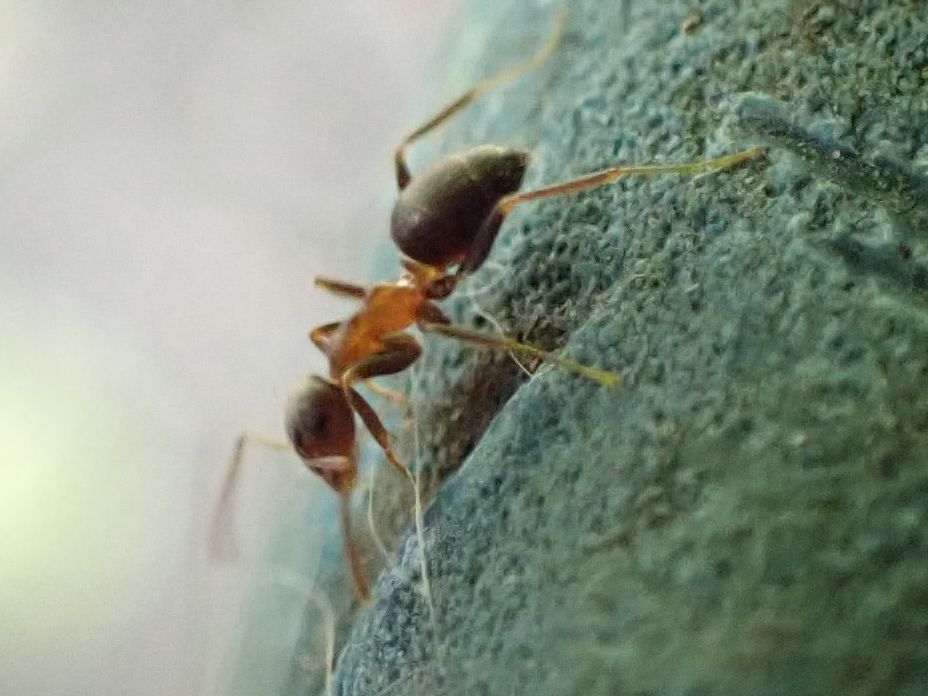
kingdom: Animalia
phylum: Arthropoda
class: Insecta
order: Hymenoptera
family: Formicidae
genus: Lasius
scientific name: Lasius emarginatus
